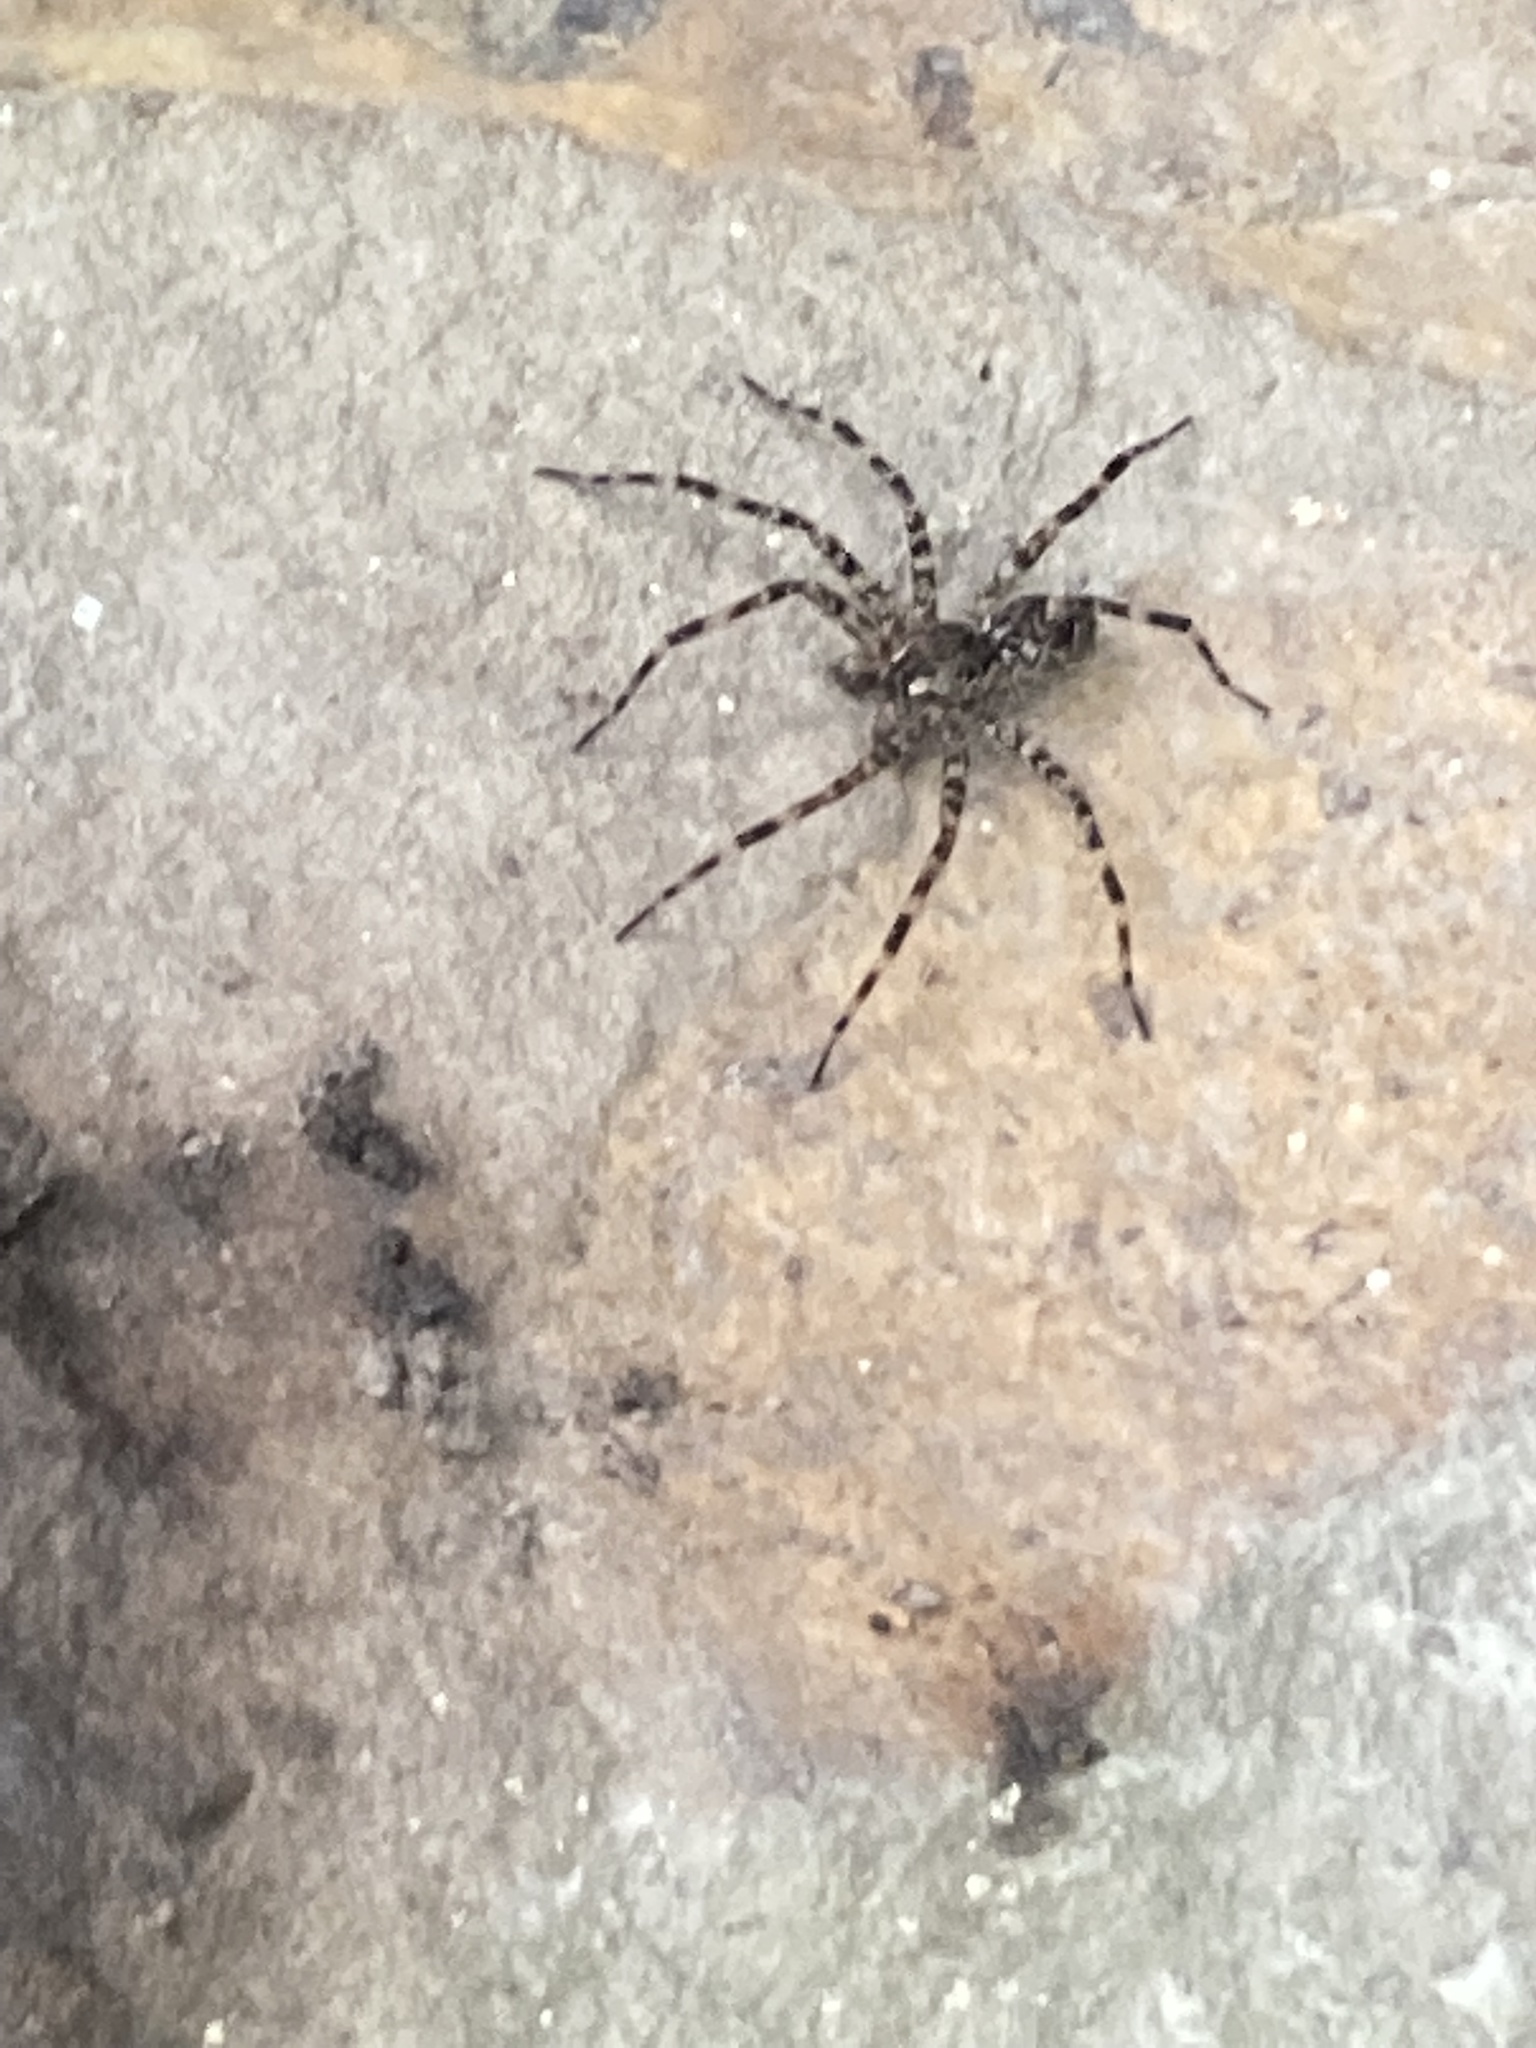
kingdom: Animalia
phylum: Arthropoda
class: Arachnida
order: Araneae
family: Pisauridae
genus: Dolomedes
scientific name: Dolomedes tenebrosus
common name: Dark fishing spider
